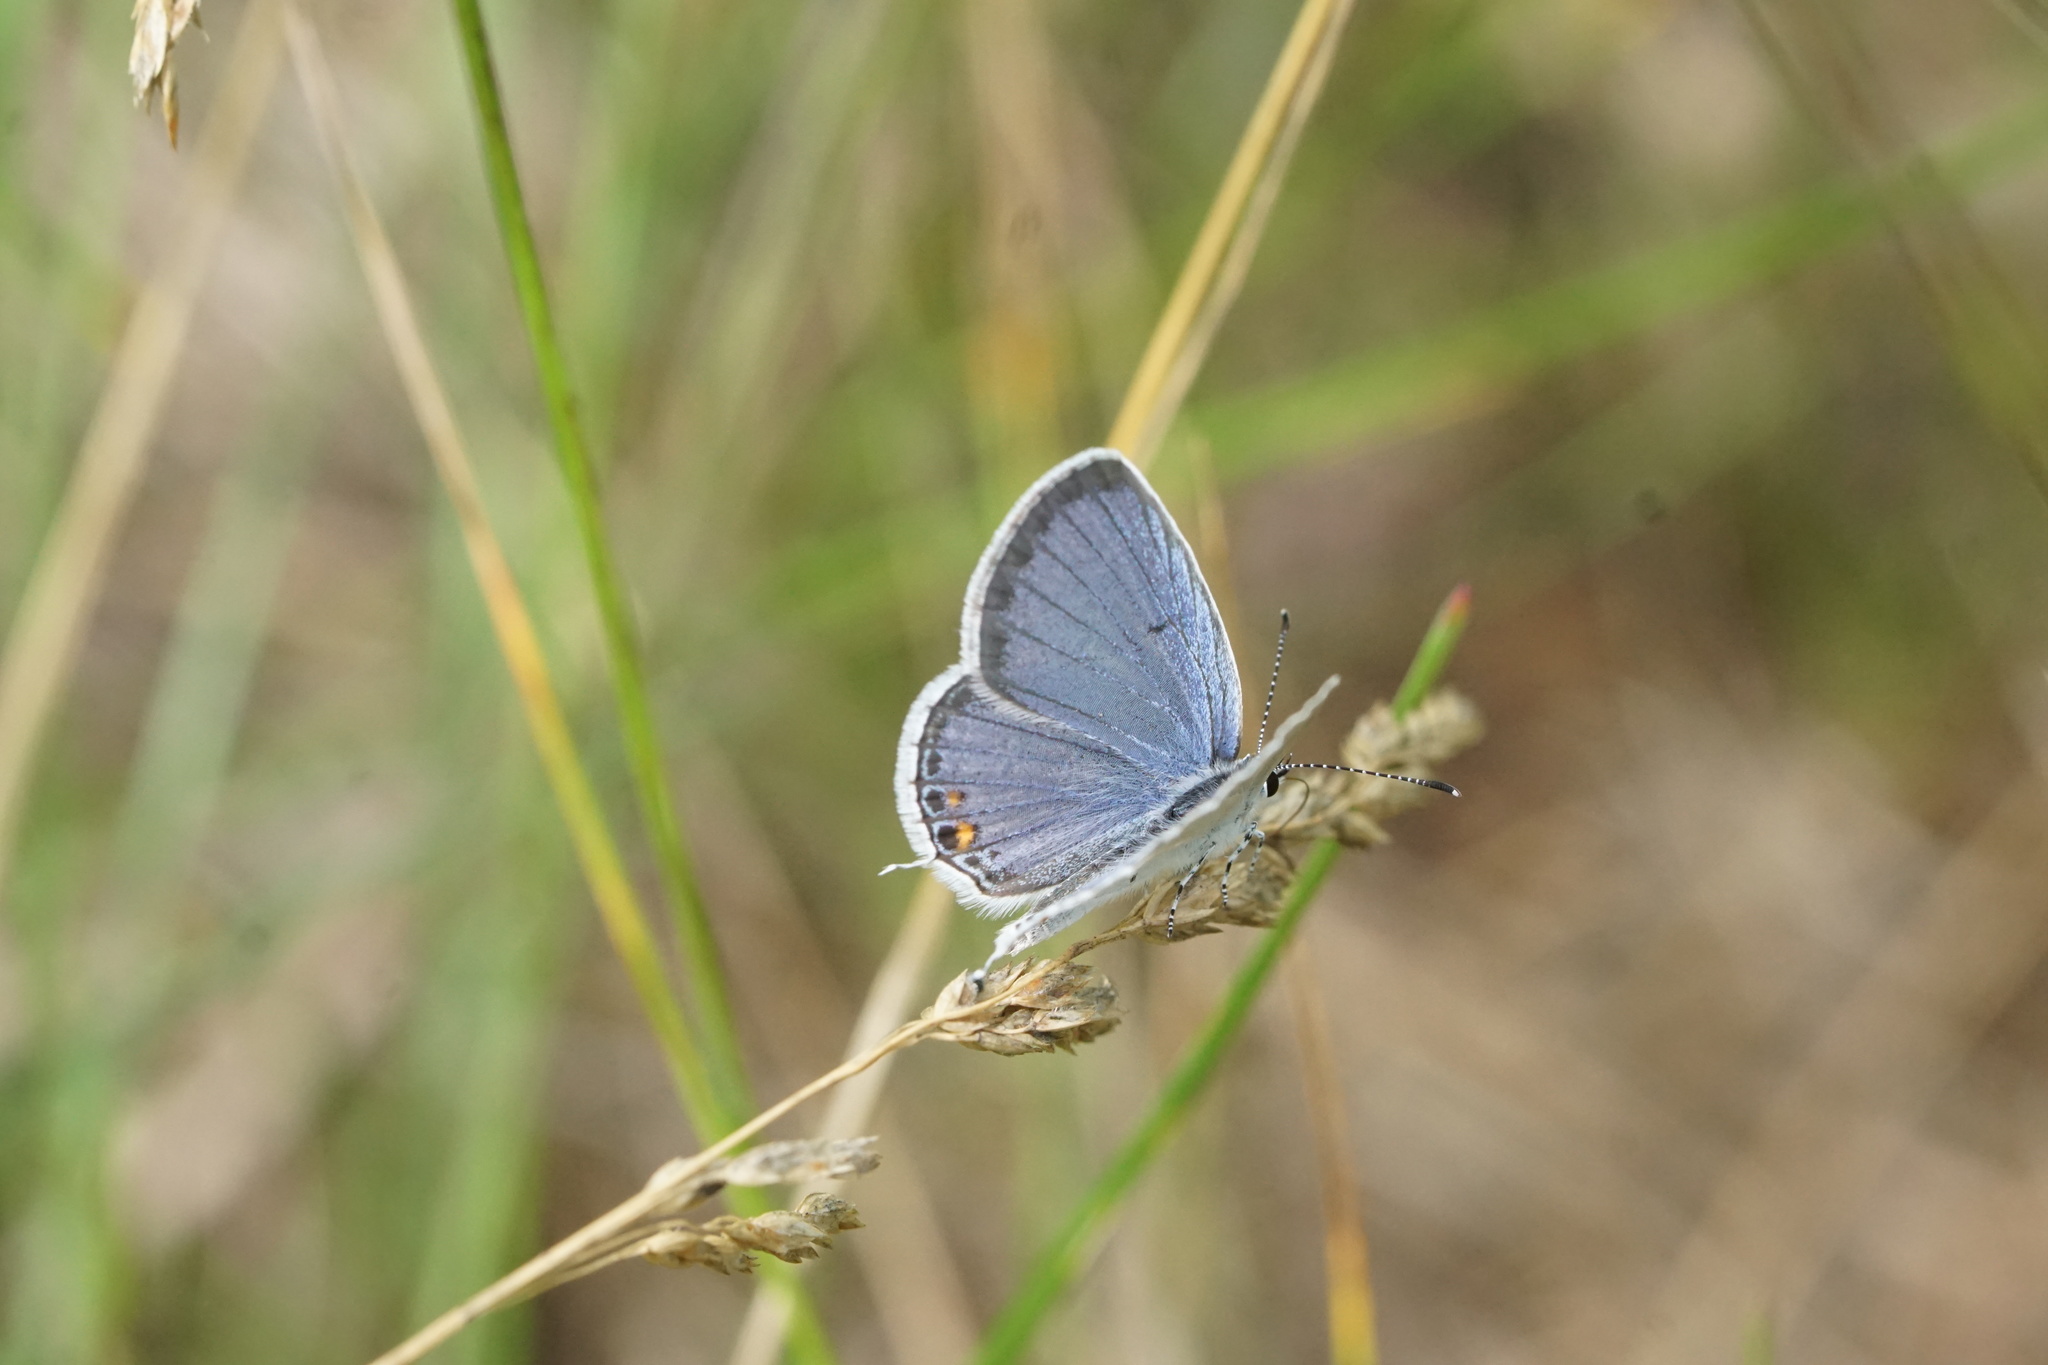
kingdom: Animalia
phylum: Arthropoda
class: Insecta
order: Lepidoptera
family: Lycaenidae
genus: Elkalyce
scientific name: Elkalyce comyntas
